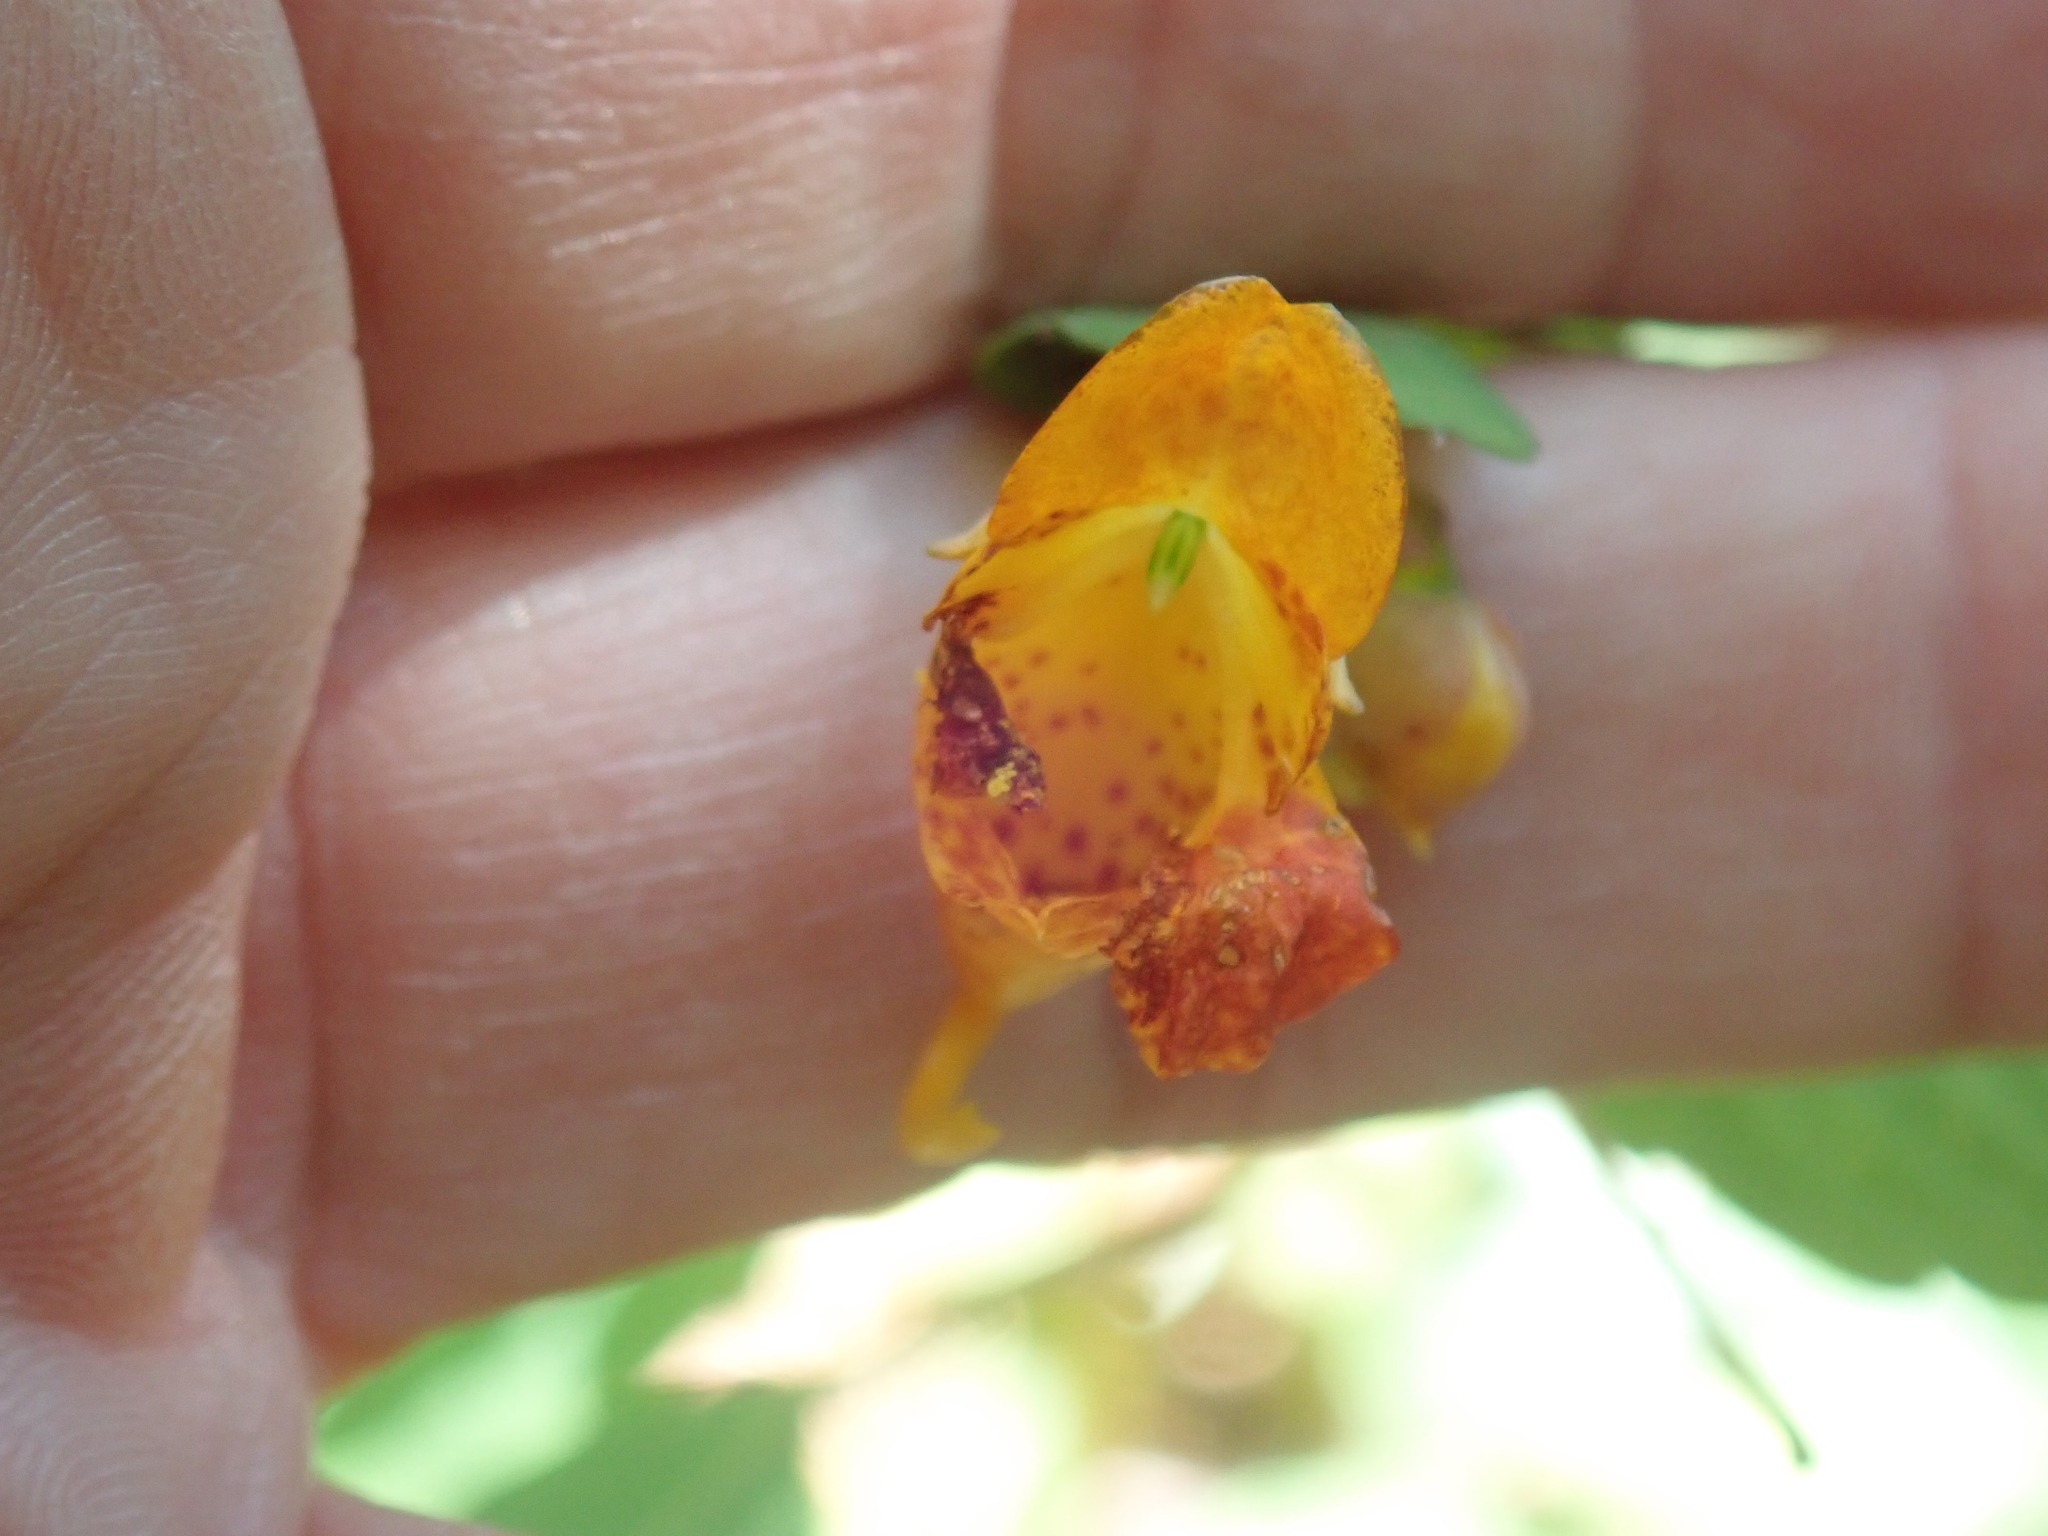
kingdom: Plantae
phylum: Tracheophyta
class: Magnoliopsida
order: Ericales
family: Balsaminaceae
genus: Impatiens
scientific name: Impatiens capensis
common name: Orange balsam
